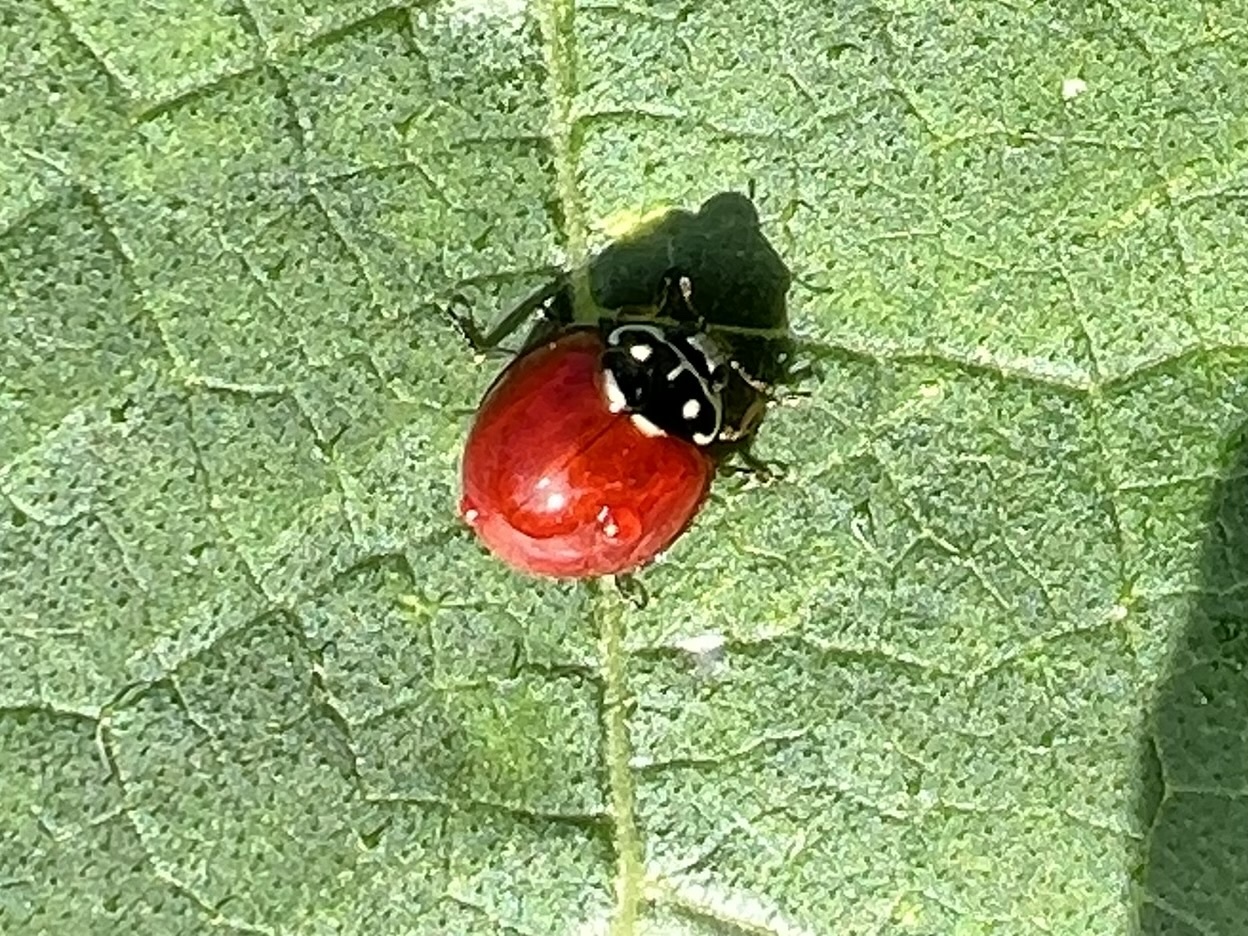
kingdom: Animalia
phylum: Arthropoda
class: Insecta
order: Coleoptera
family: Coccinellidae
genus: Cycloneda
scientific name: Cycloneda sanguinea
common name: Ladybird beetle
